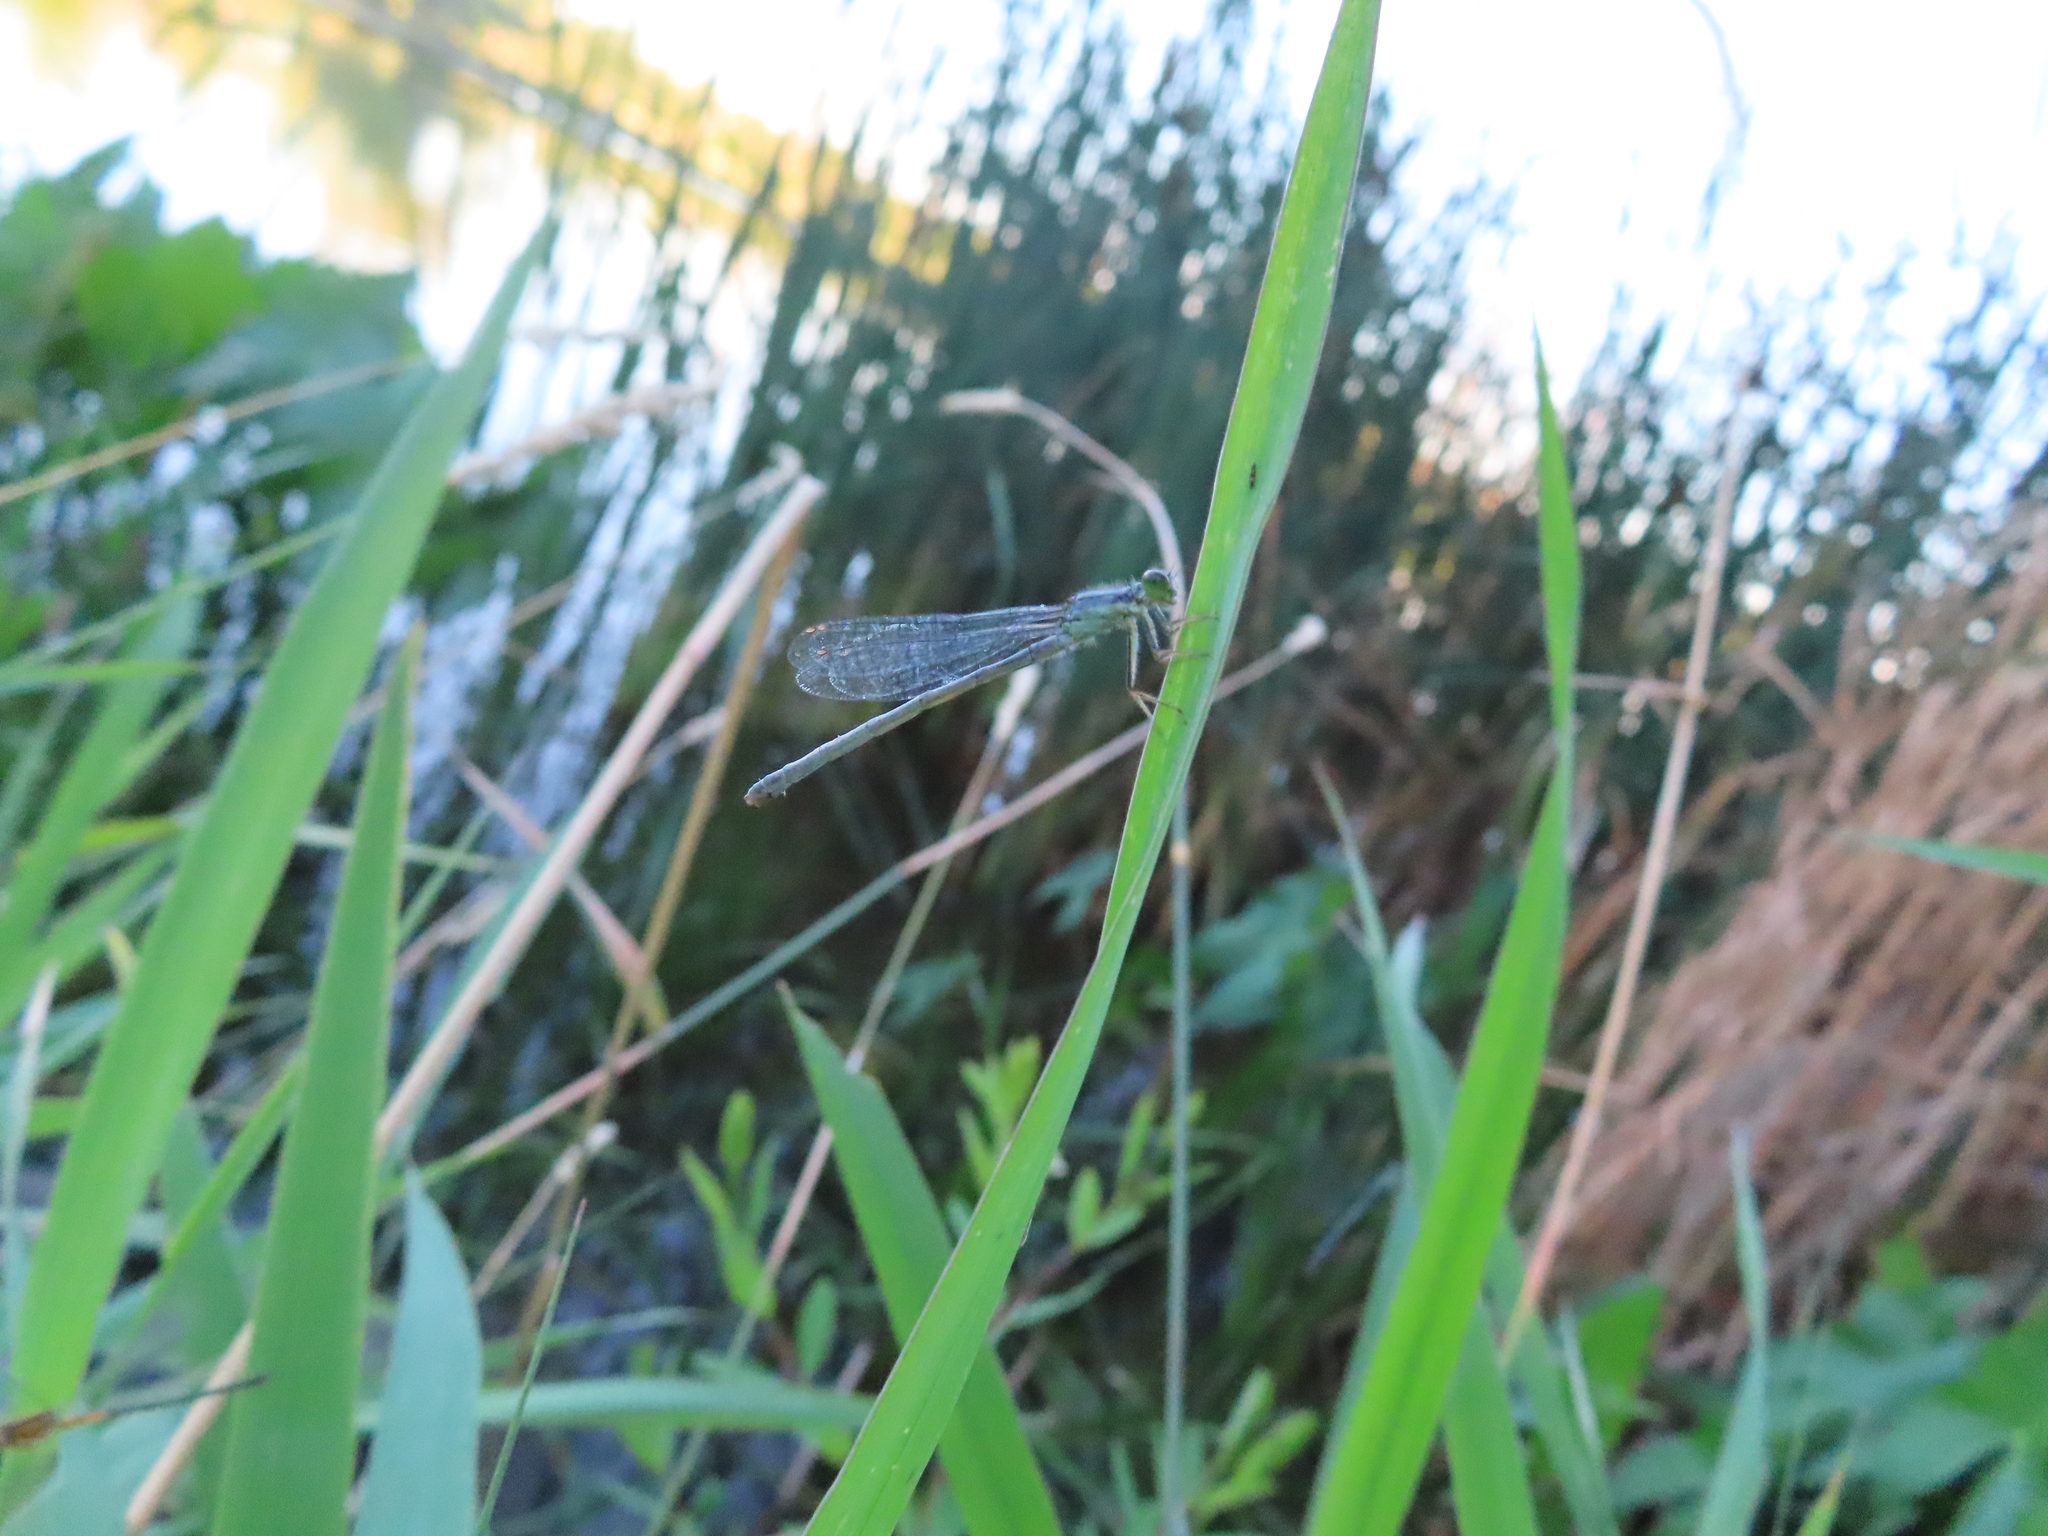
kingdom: Animalia
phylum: Arthropoda
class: Insecta
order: Odonata
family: Coenagrionidae
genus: Ischnura
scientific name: Ischnura verticalis
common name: Eastern forktail
